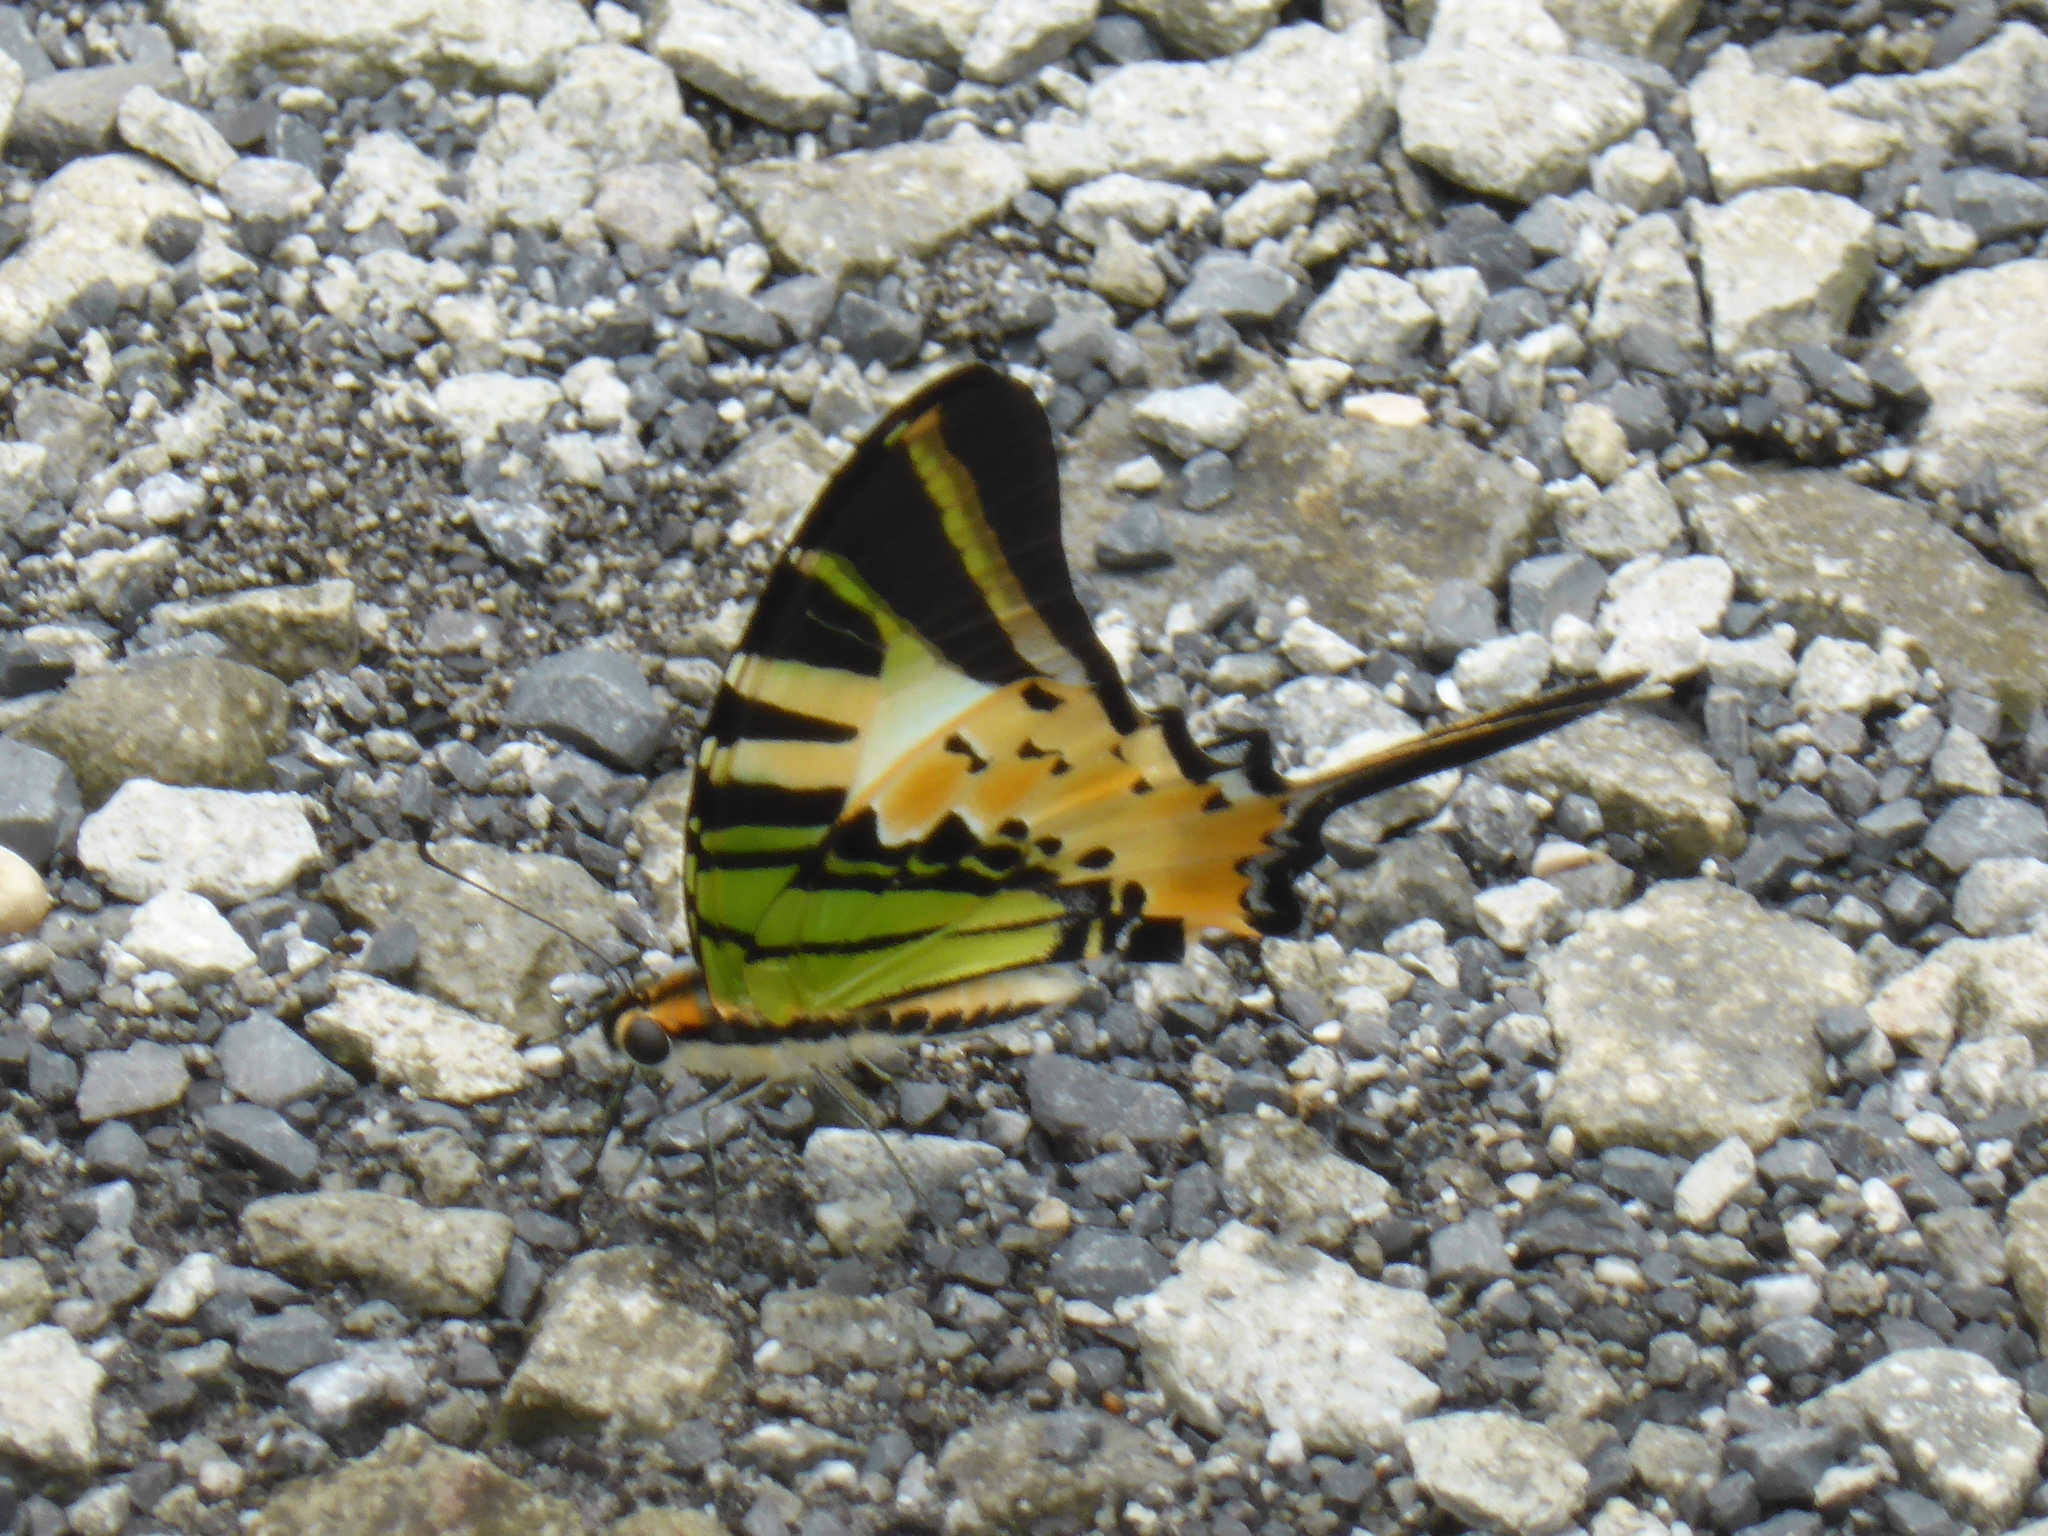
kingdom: Animalia
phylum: Arthropoda
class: Insecta
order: Lepidoptera
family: Papilionidae
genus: Graphium
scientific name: Graphium antiphates
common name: Fivebar swordtail
